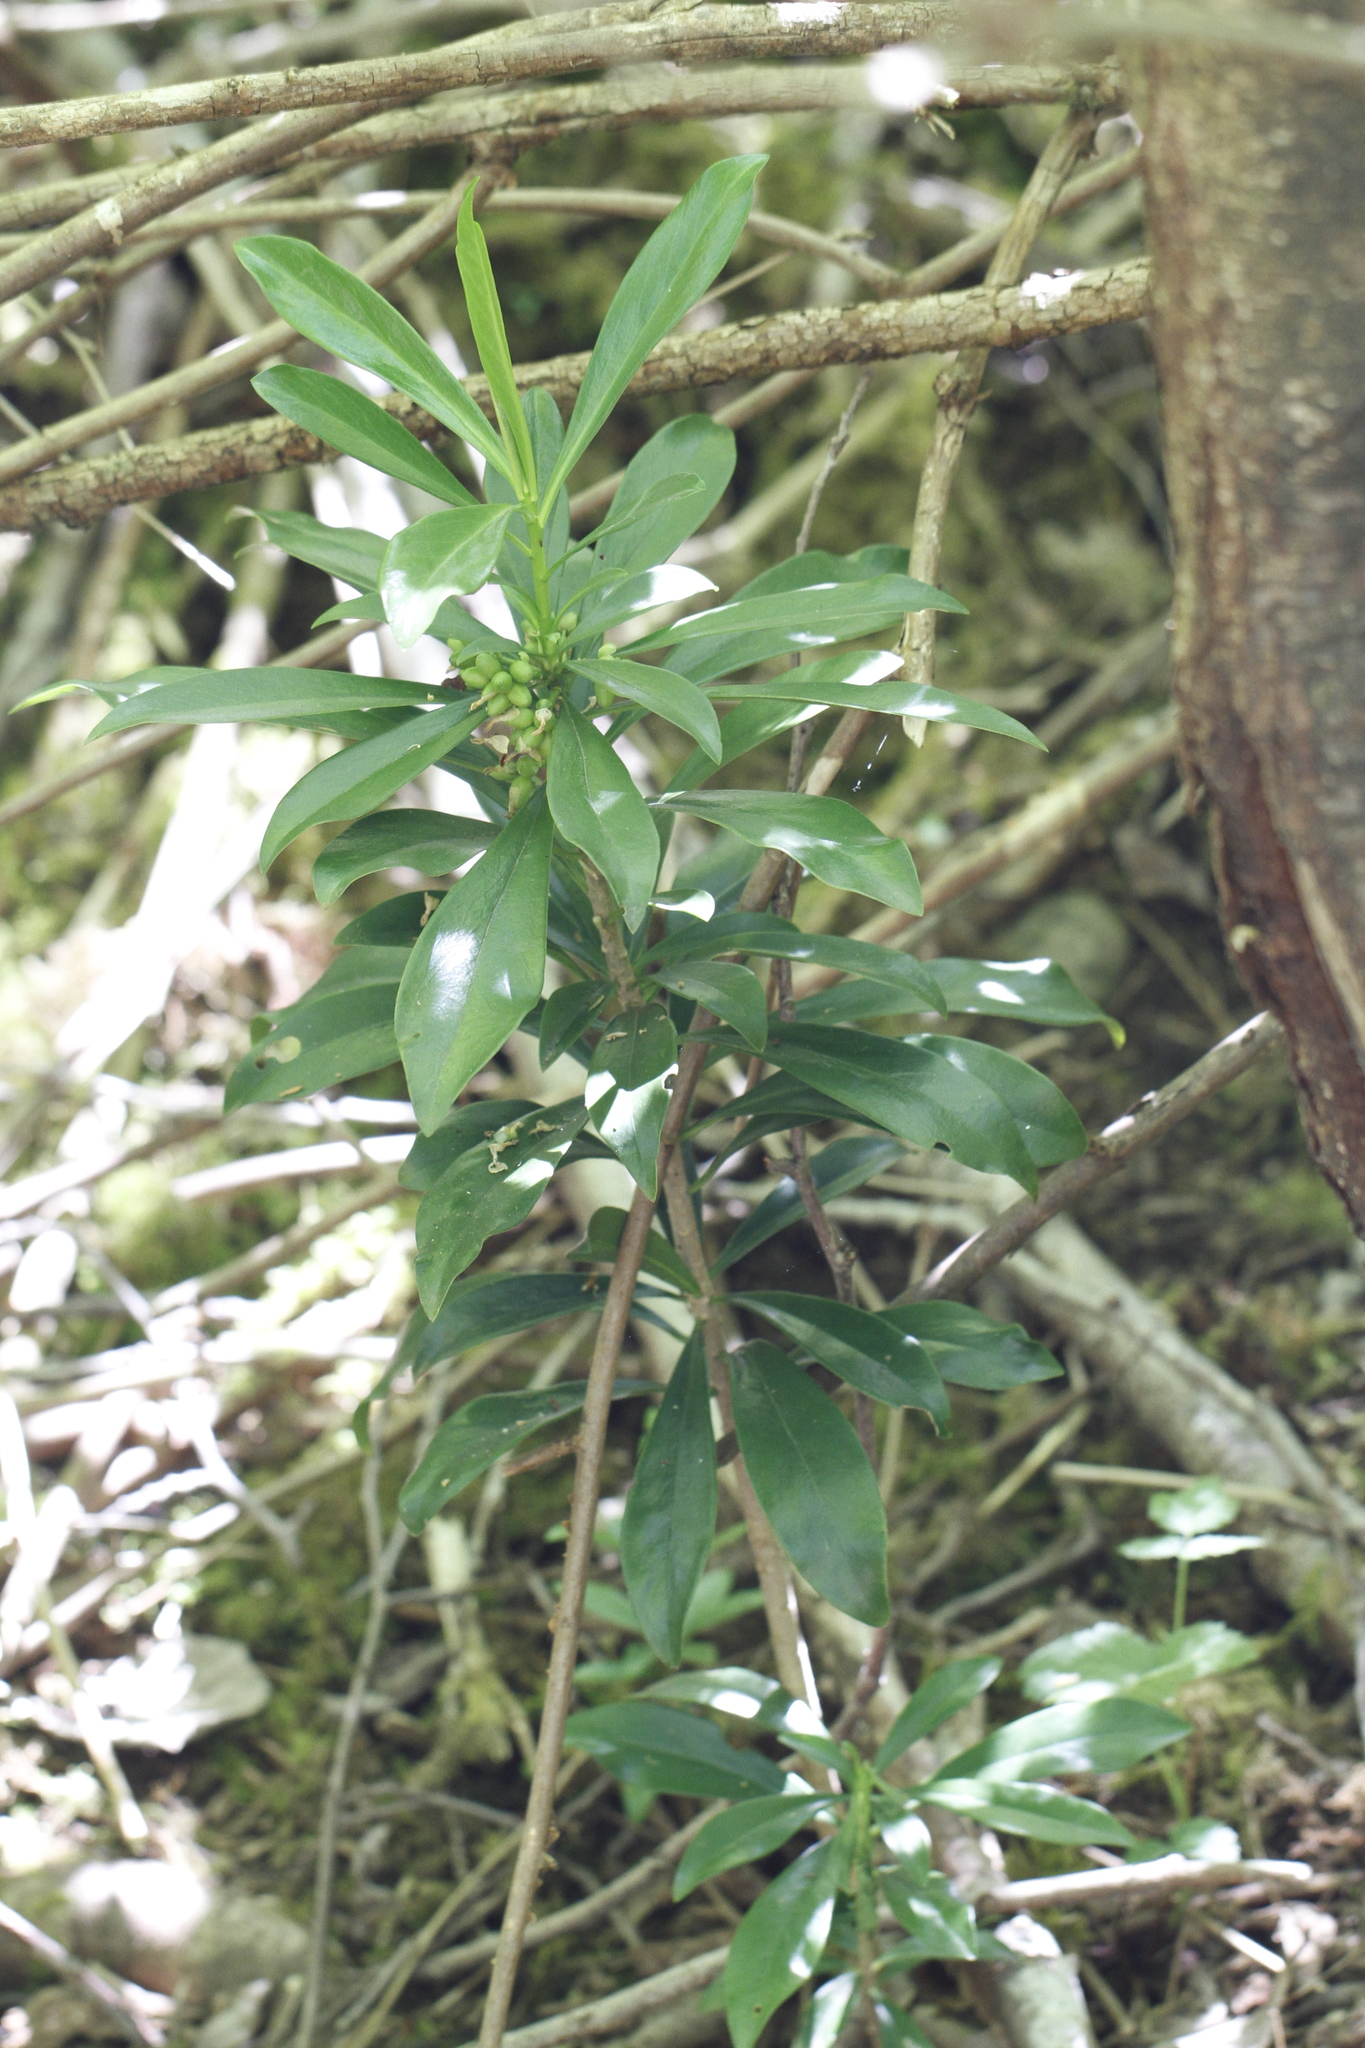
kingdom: Plantae
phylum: Tracheophyta
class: Magnoliopsida
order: Malvales
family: Thymelaeaceae
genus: Daphne
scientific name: Daphne laureola
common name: Spurge-laurel
